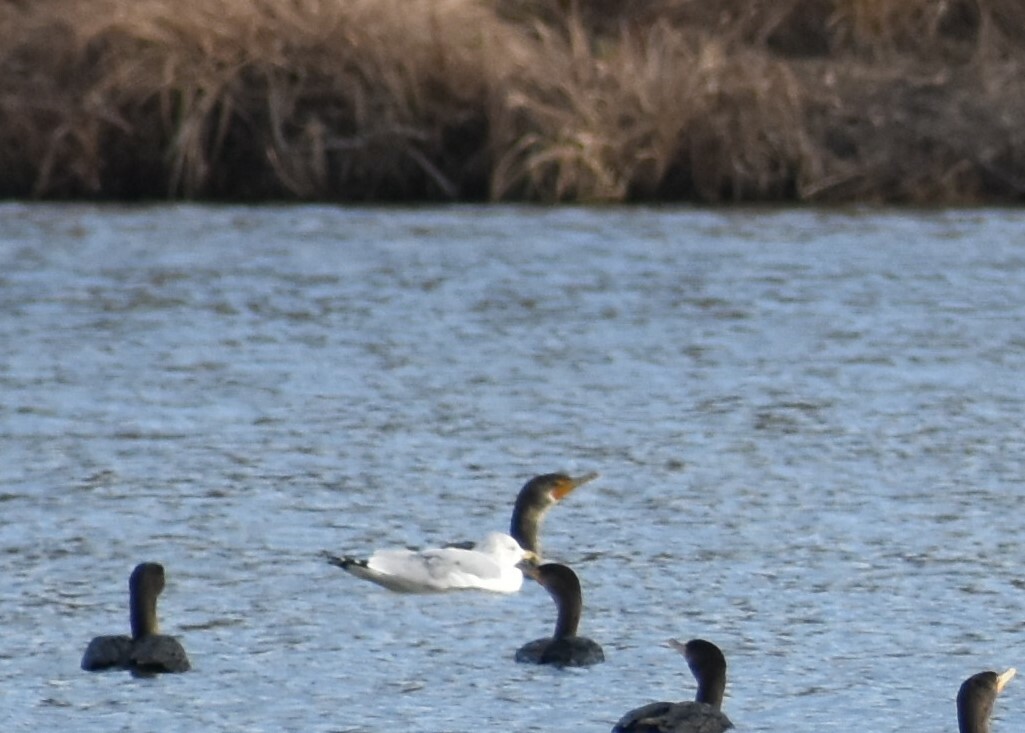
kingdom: Animalia
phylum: Chordata
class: Aves
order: Suliformes
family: Phalacrocoracidae
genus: Phalacrocorax
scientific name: Phalacrocorax auritus
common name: Double-crested cormorant
